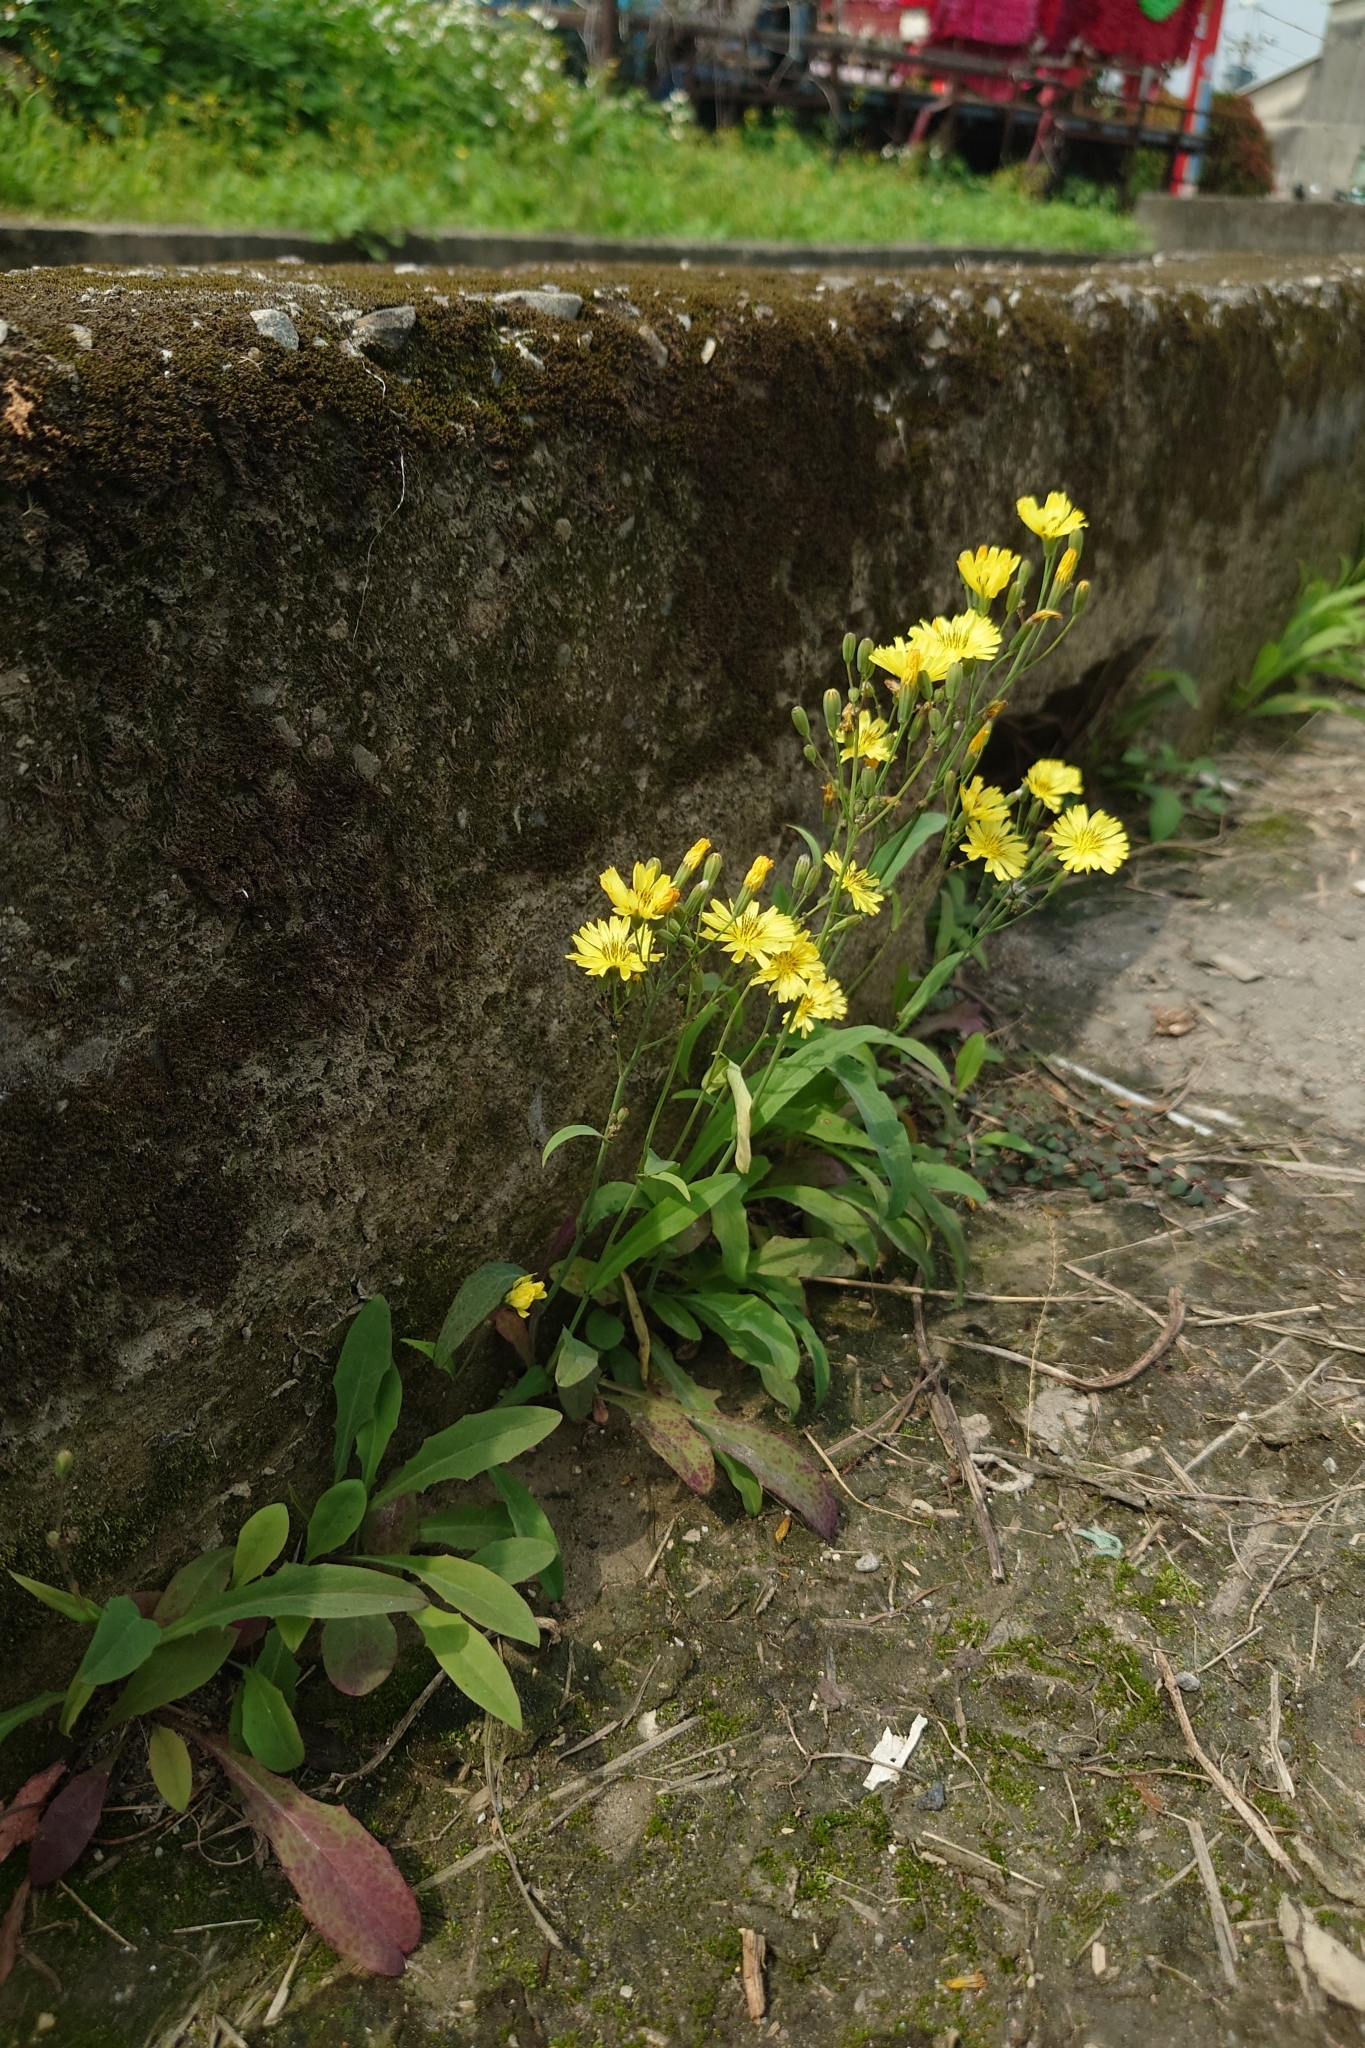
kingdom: Plantae
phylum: Tracheophyta
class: Magnoliopsida
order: Asterales
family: Asteraceae
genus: Ixeris
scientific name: Ixeris chinensis
